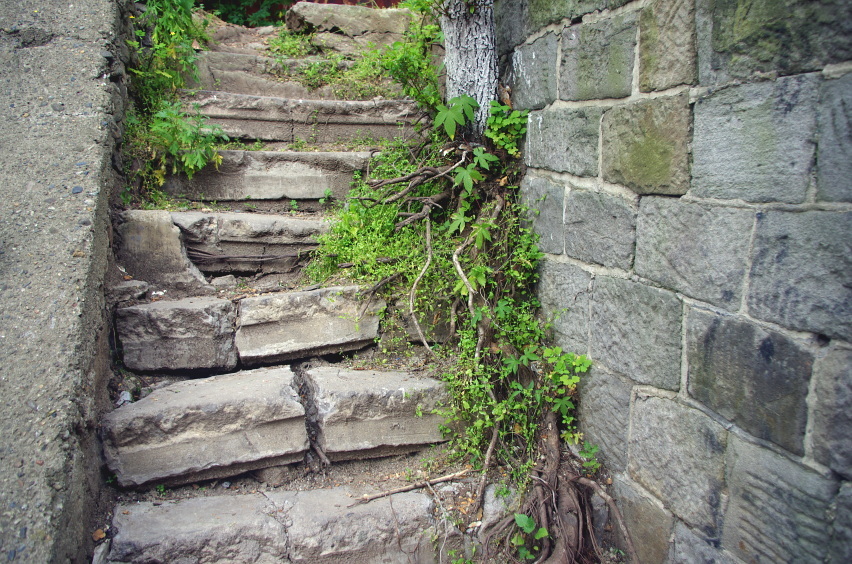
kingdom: Plantae
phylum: Tracheophyta
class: Magnoliopsida
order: Ranunculales
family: Papaveraceae
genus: Chelidonium
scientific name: Chelidonium majus
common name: Greater celandine
